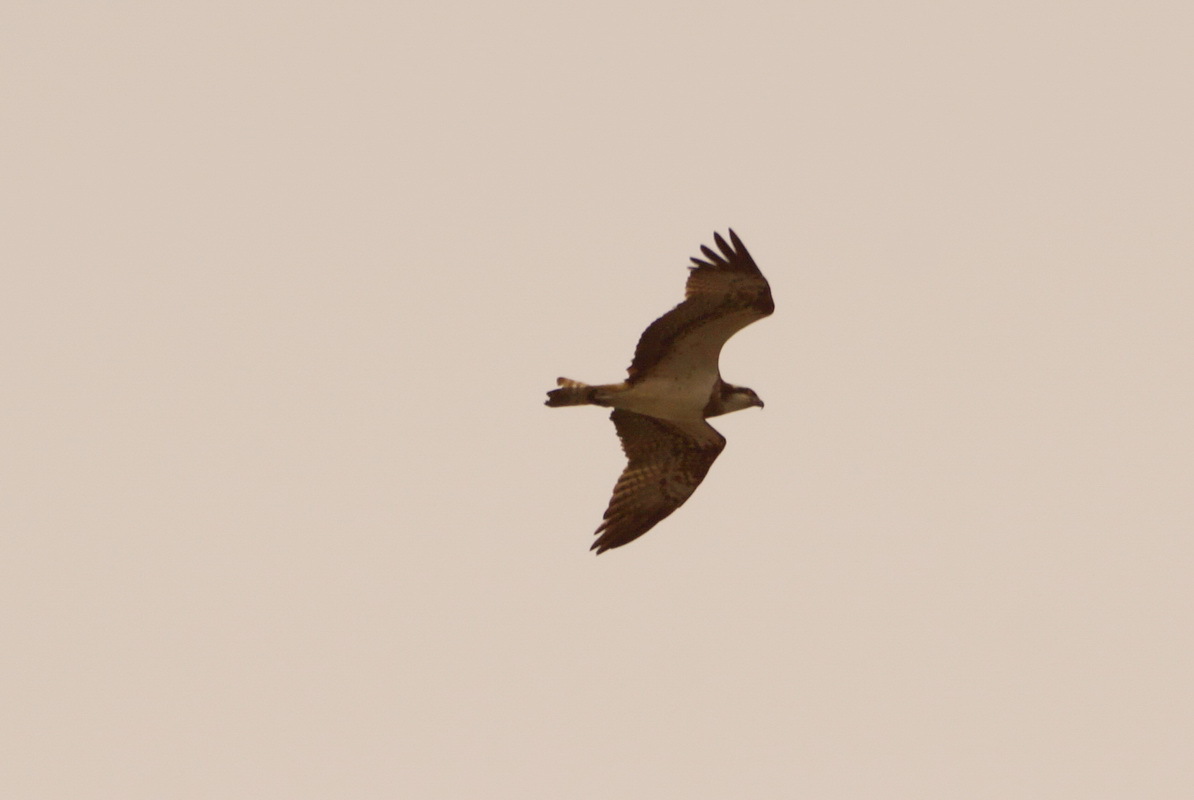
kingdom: Animalia
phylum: Chordata
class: Aves
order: Accipitriformes
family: Pandionidae
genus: Pandion
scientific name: Pandion haliaetus
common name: Osprey
